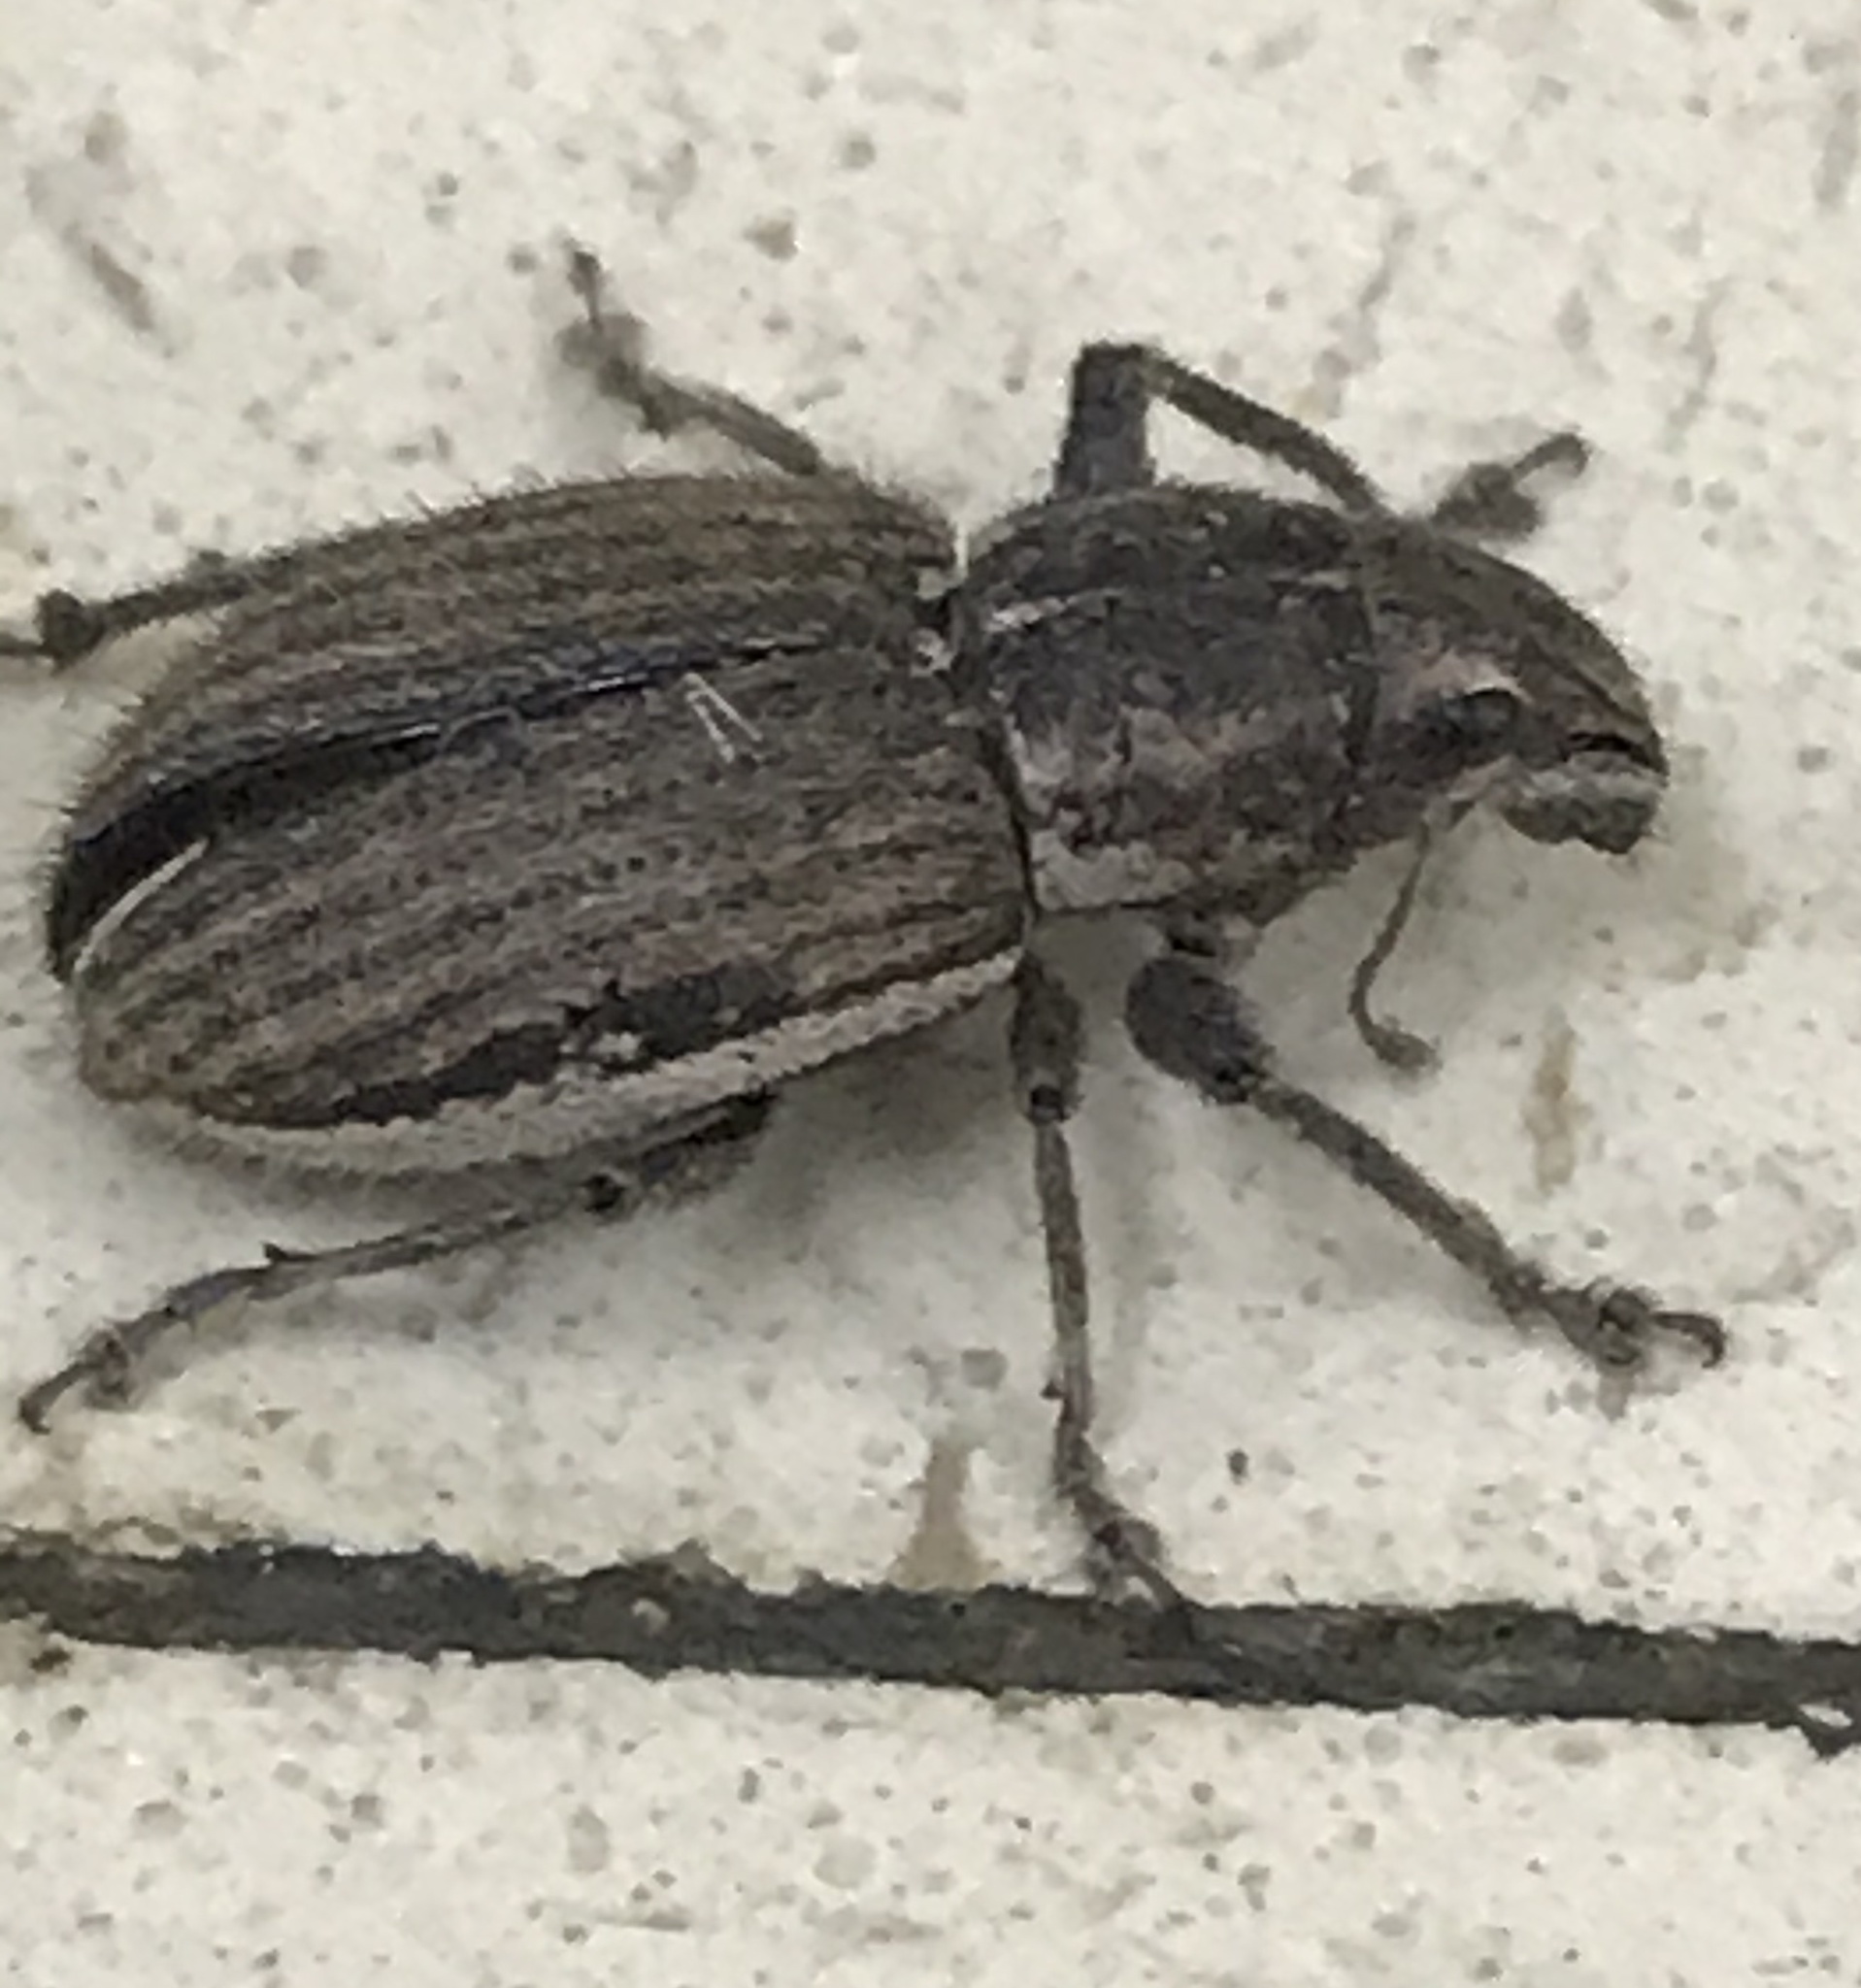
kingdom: Animalia
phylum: Arthropoda
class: Insecta
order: Coleoptera
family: Curculionidae
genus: Naupactus
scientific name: Naupactus leucoloma
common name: Whitefringed beetle
